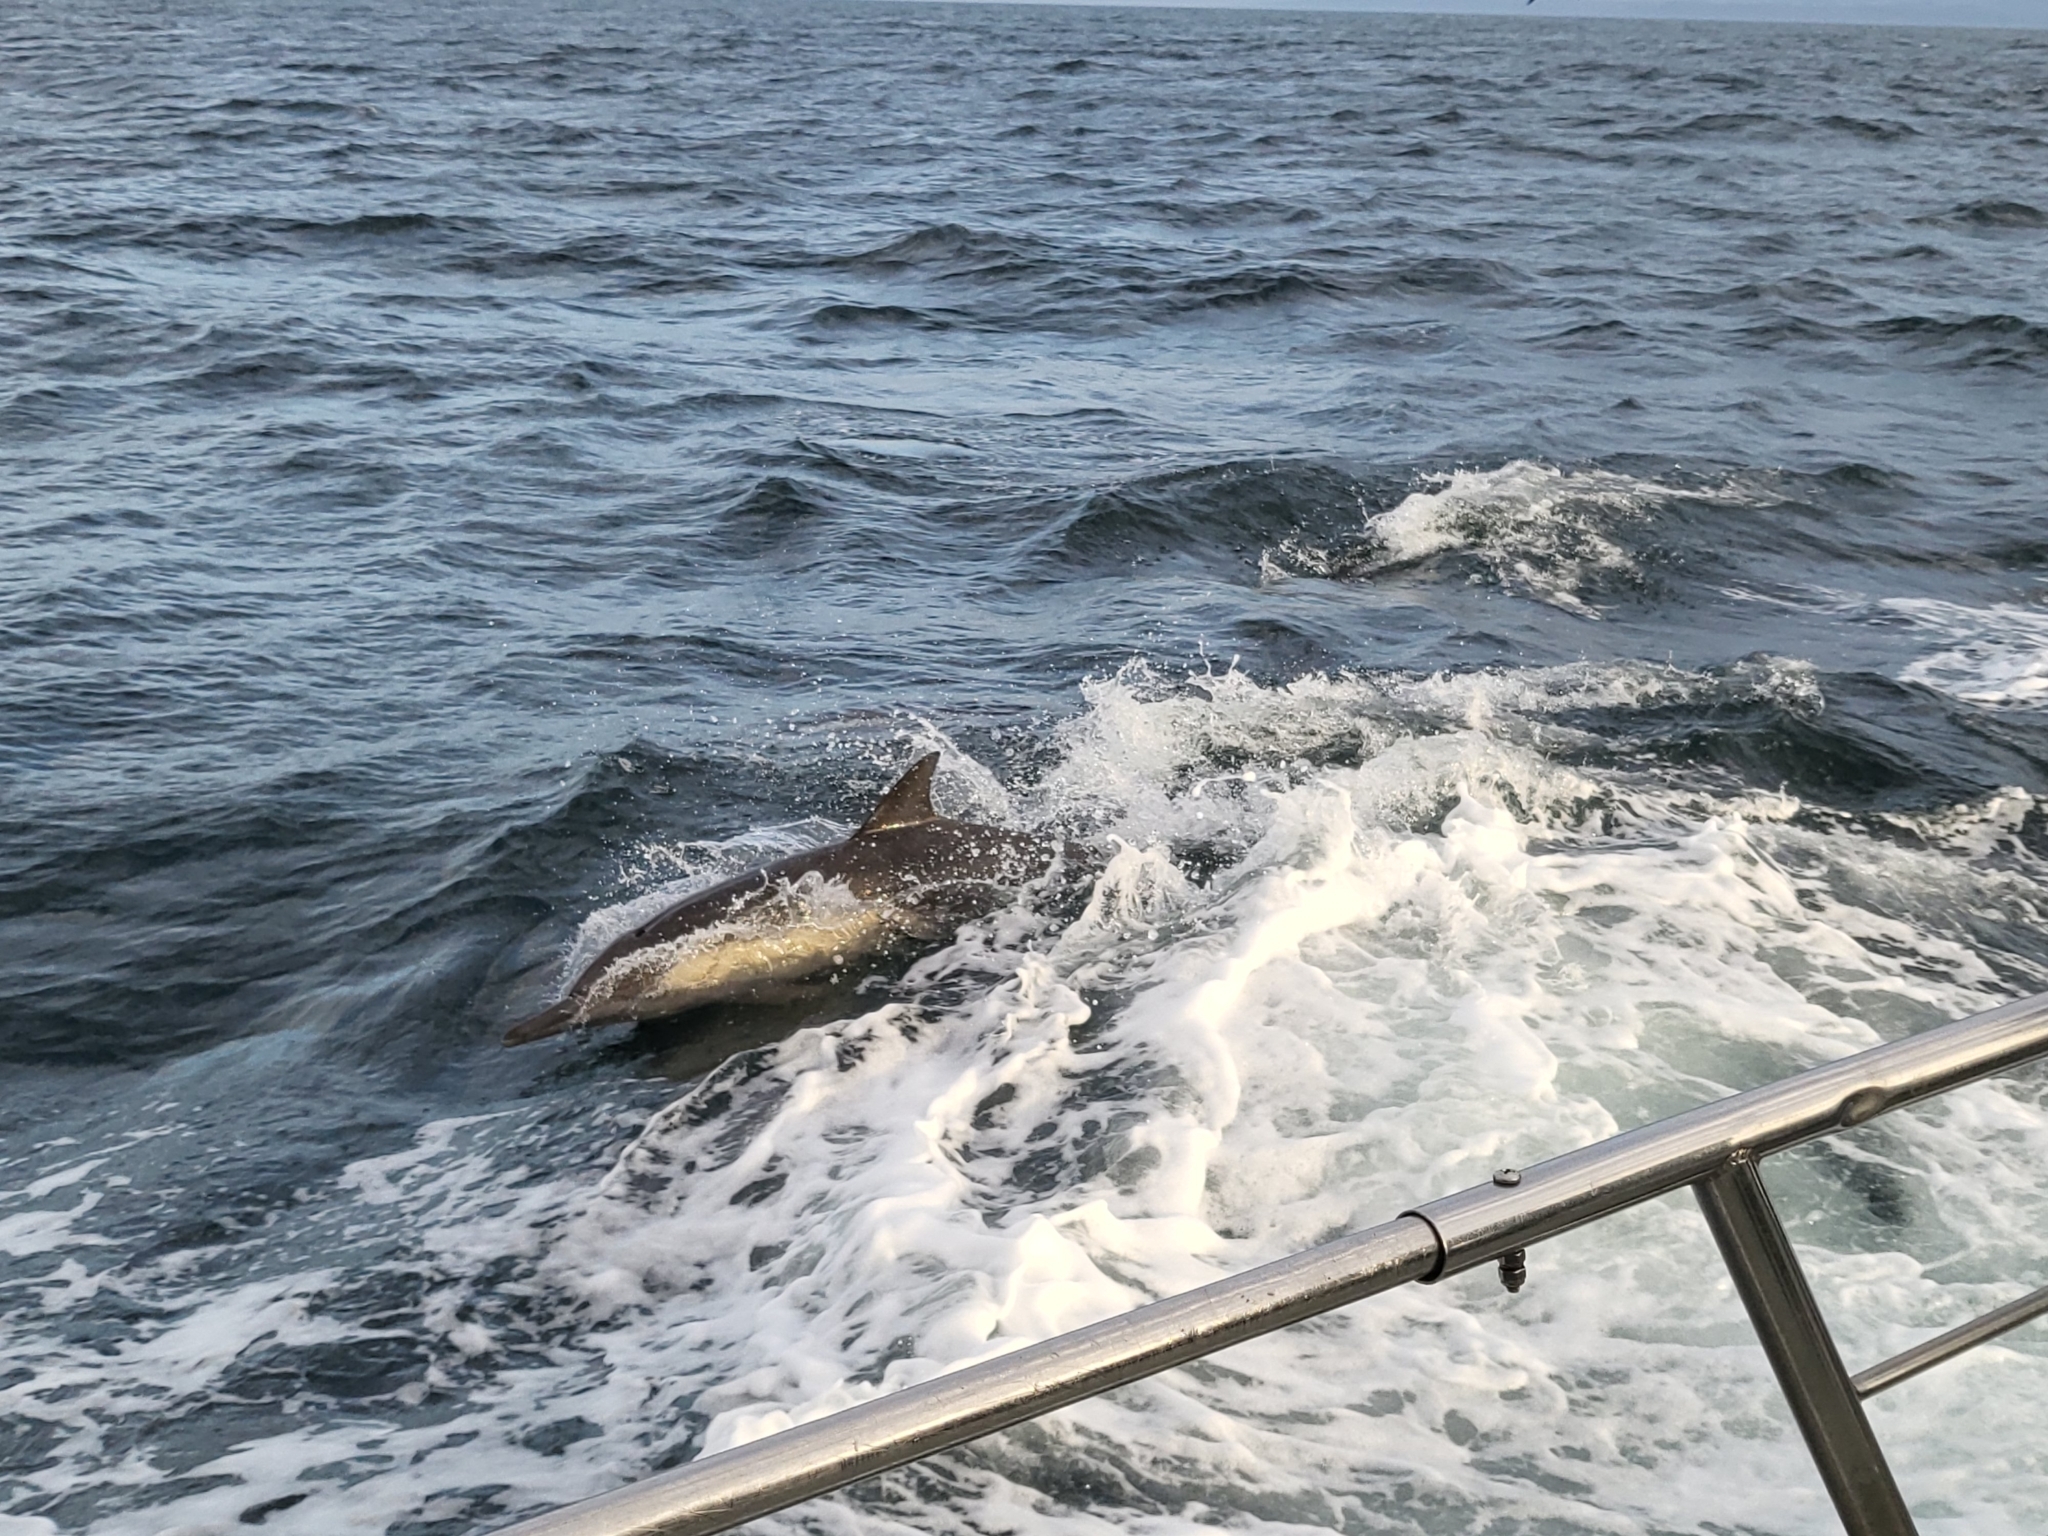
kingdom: Animalia
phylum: Chordata
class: Mammalia
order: Cetacea
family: Delphinidae
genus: Delphinus
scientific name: Delphinus delphis
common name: Common dolphin
